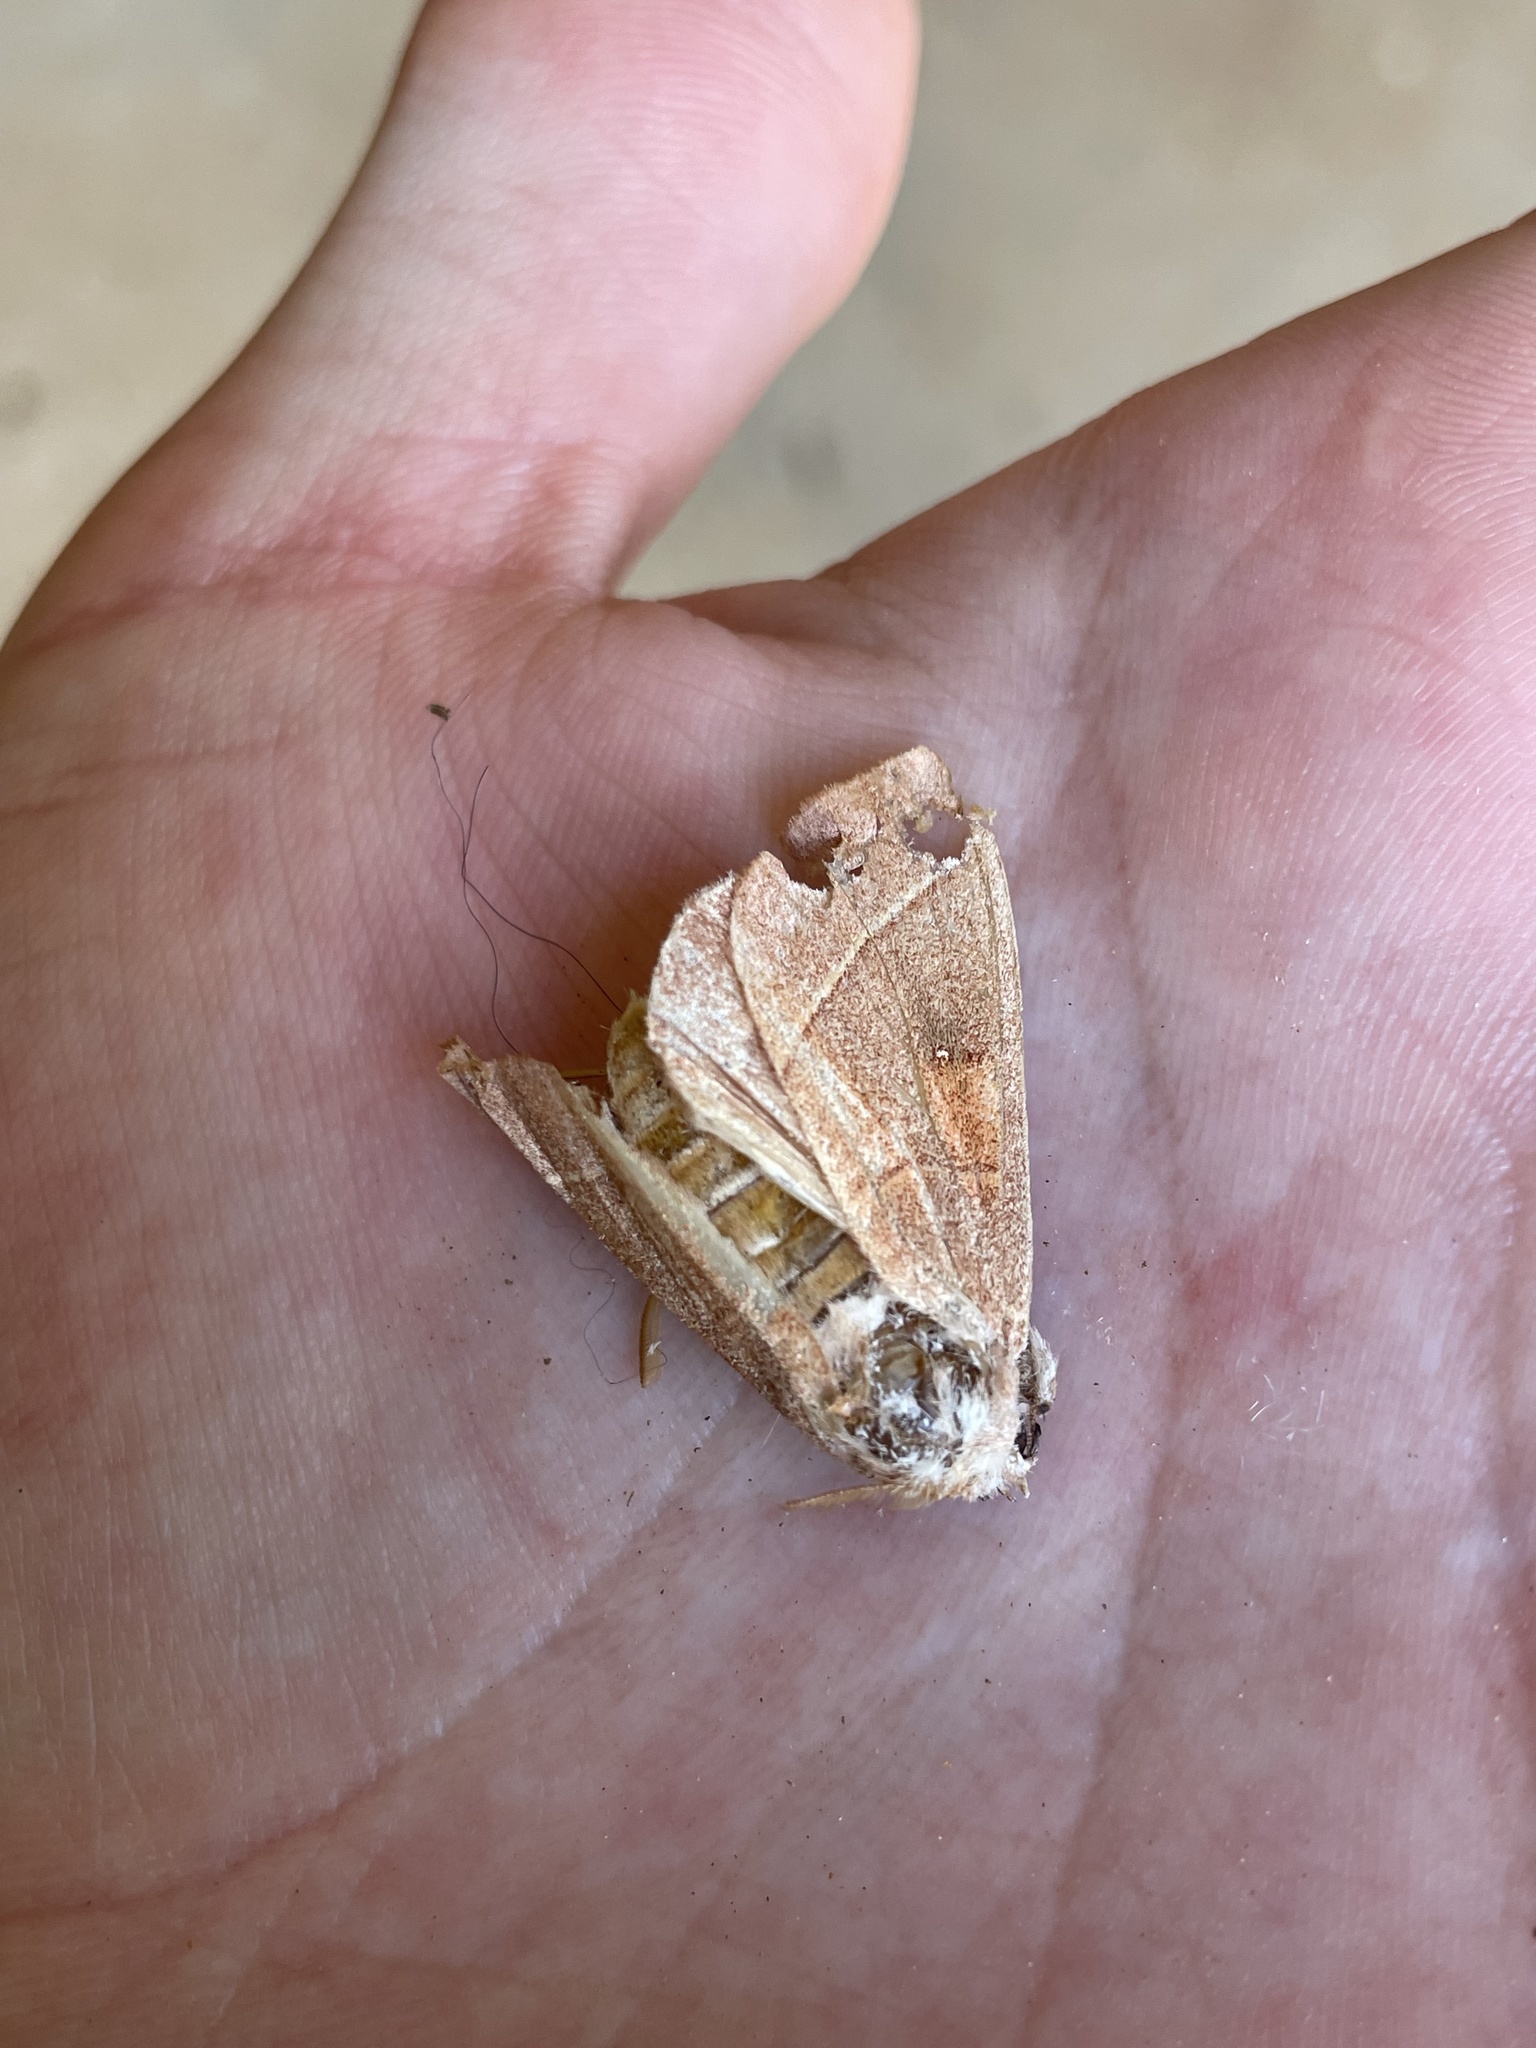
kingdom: Animalia
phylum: Arthropoda
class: Insecta
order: Lepidoptera
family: Notodontidae
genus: Nadata
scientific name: Nadata gibbosa
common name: White-dotted prominent
